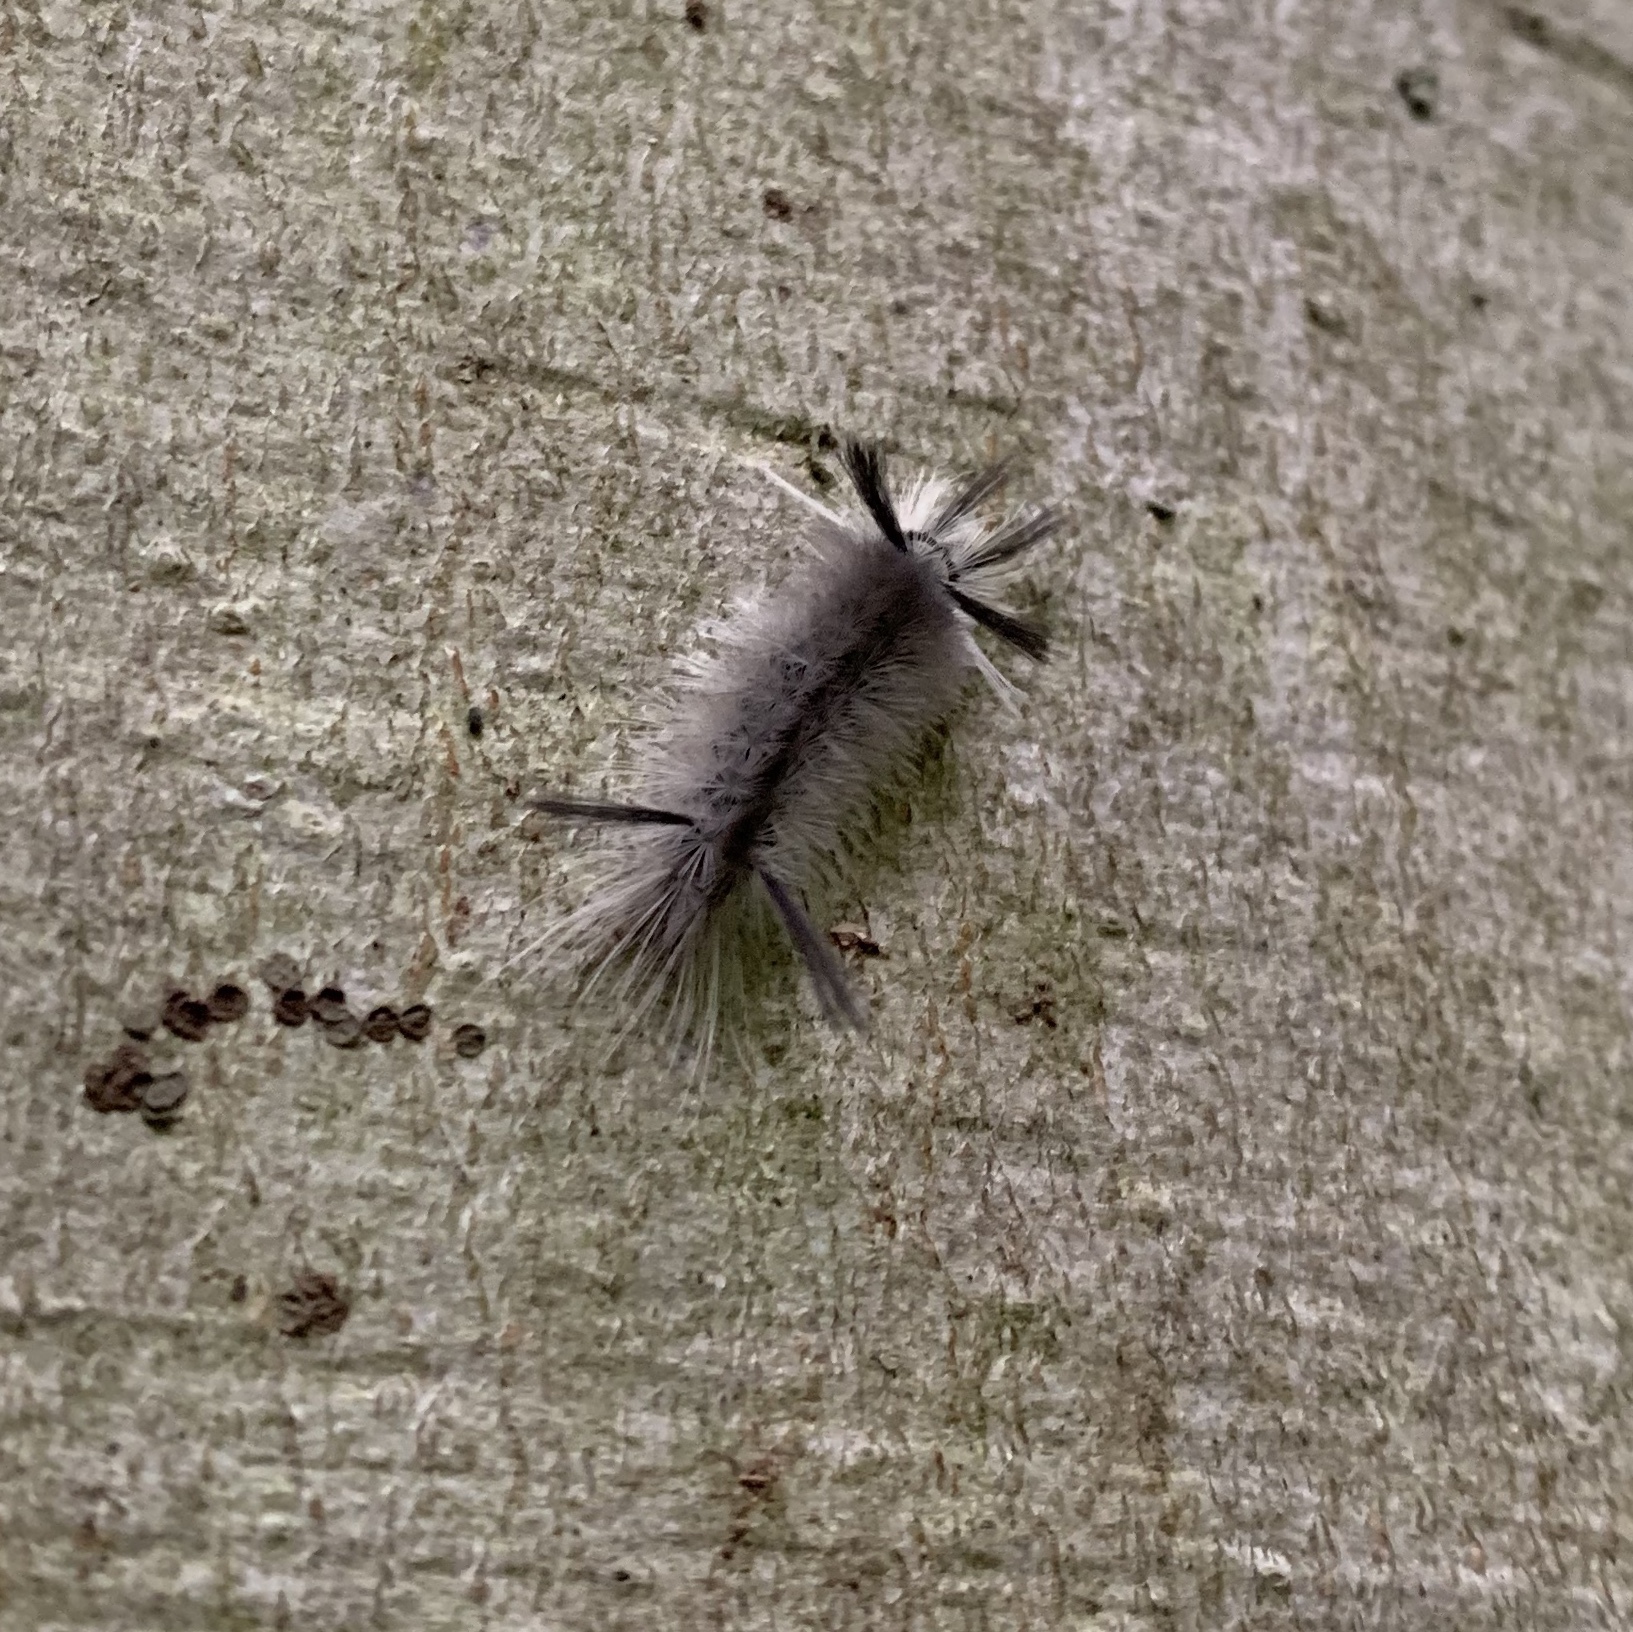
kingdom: Animalia
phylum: Arthropoda
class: Insecta
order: Lepidoptera
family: Erebidae
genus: Halysidota
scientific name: Halysidota tessellaris
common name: Banded tussock moth
